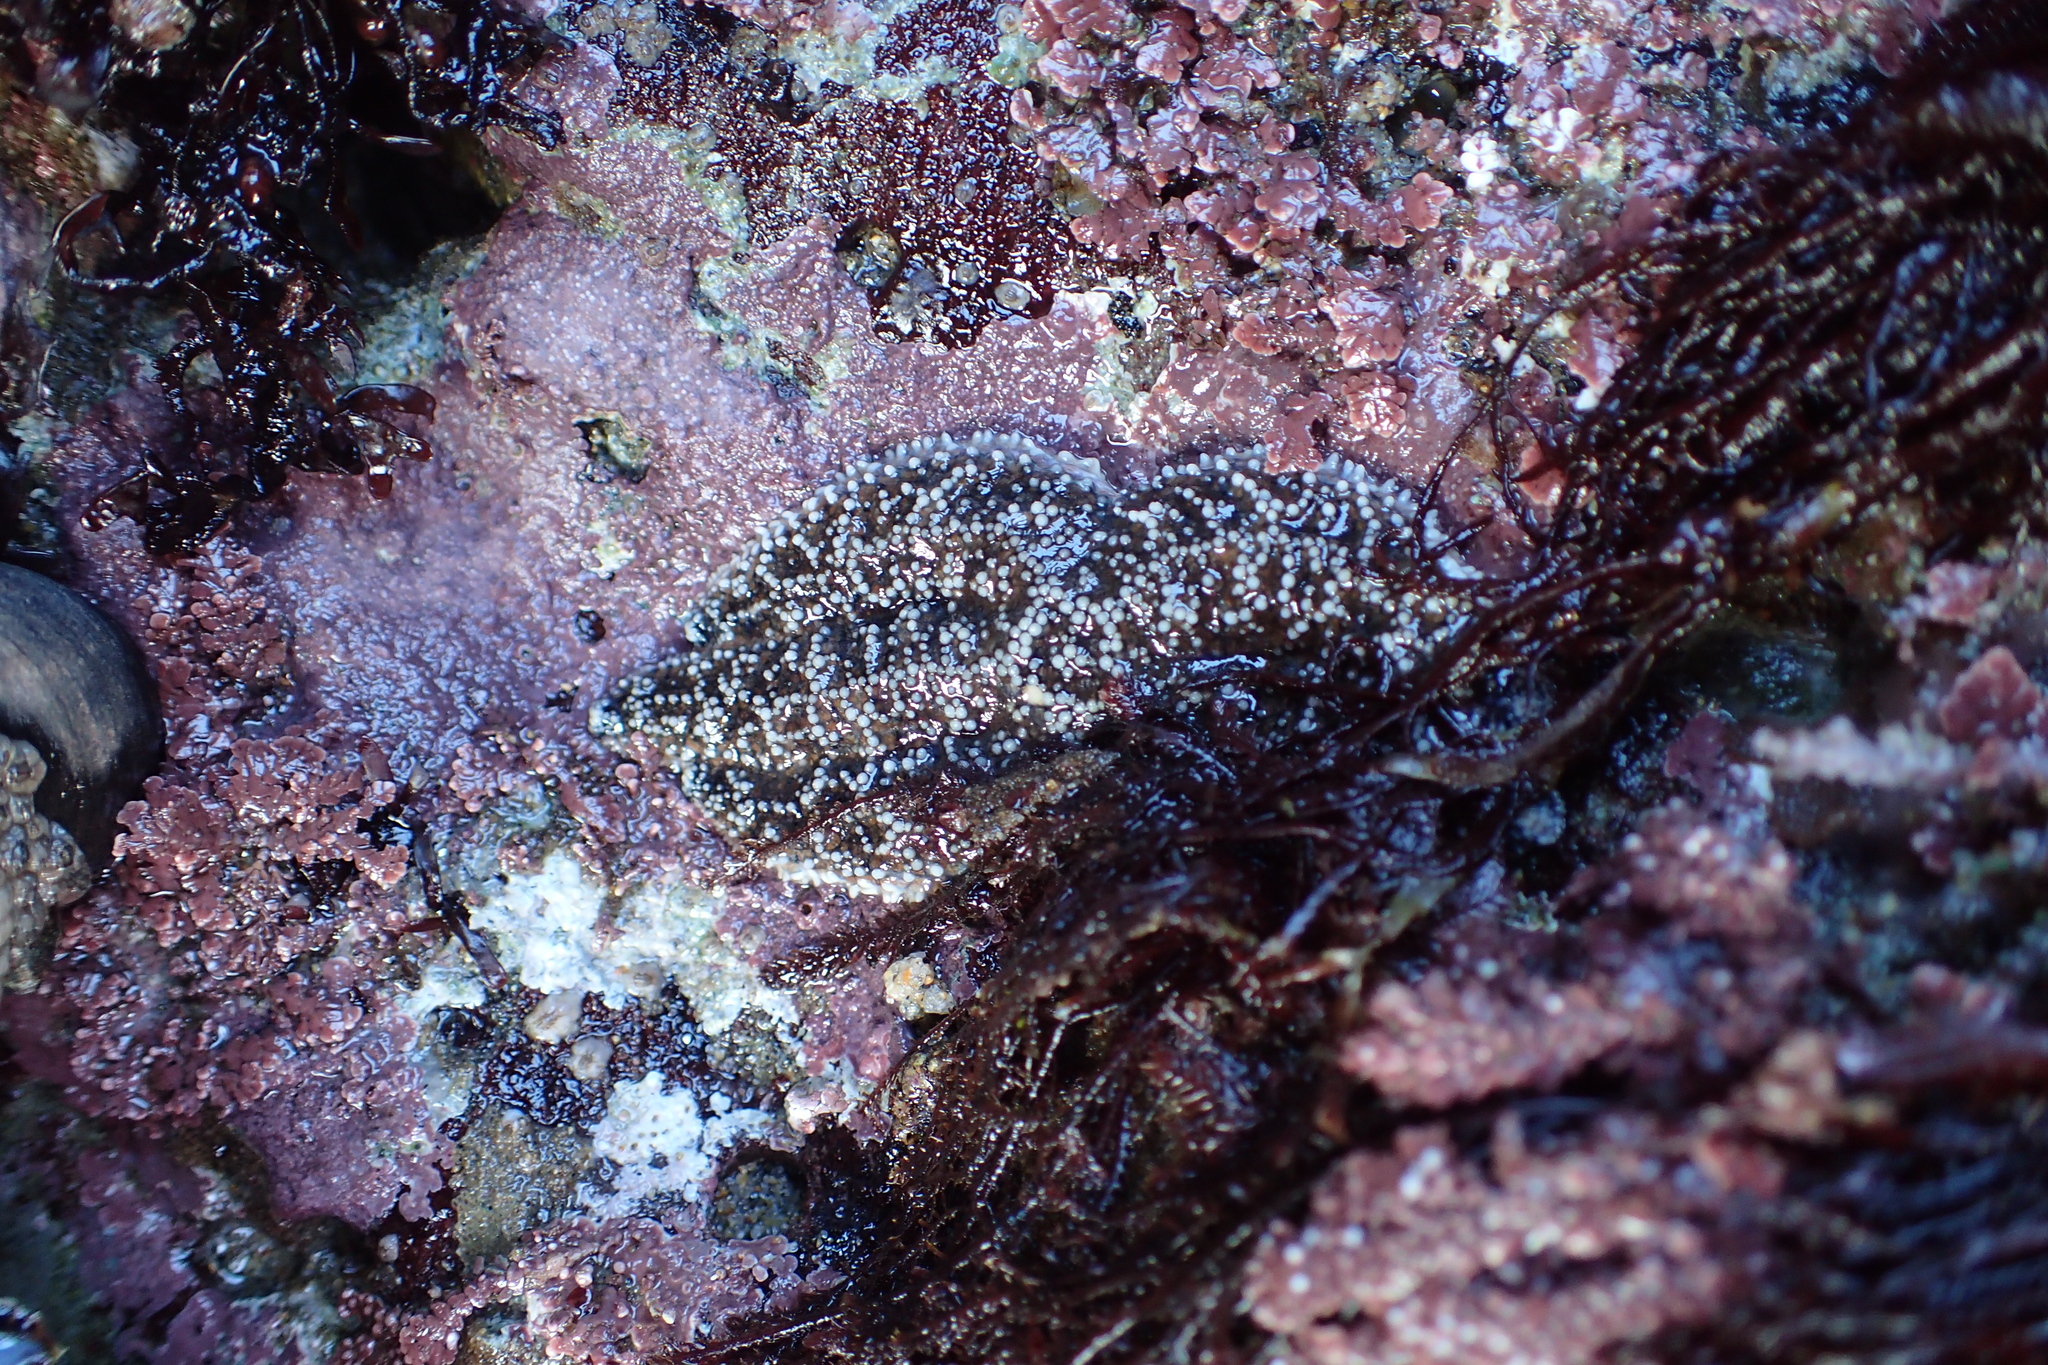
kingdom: Animalia
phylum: Echinodermata
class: Asteroidea
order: Forcipulatida
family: Asteriidae
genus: Pisaster
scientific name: Pisaster ochraceus
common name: Ochre stars
